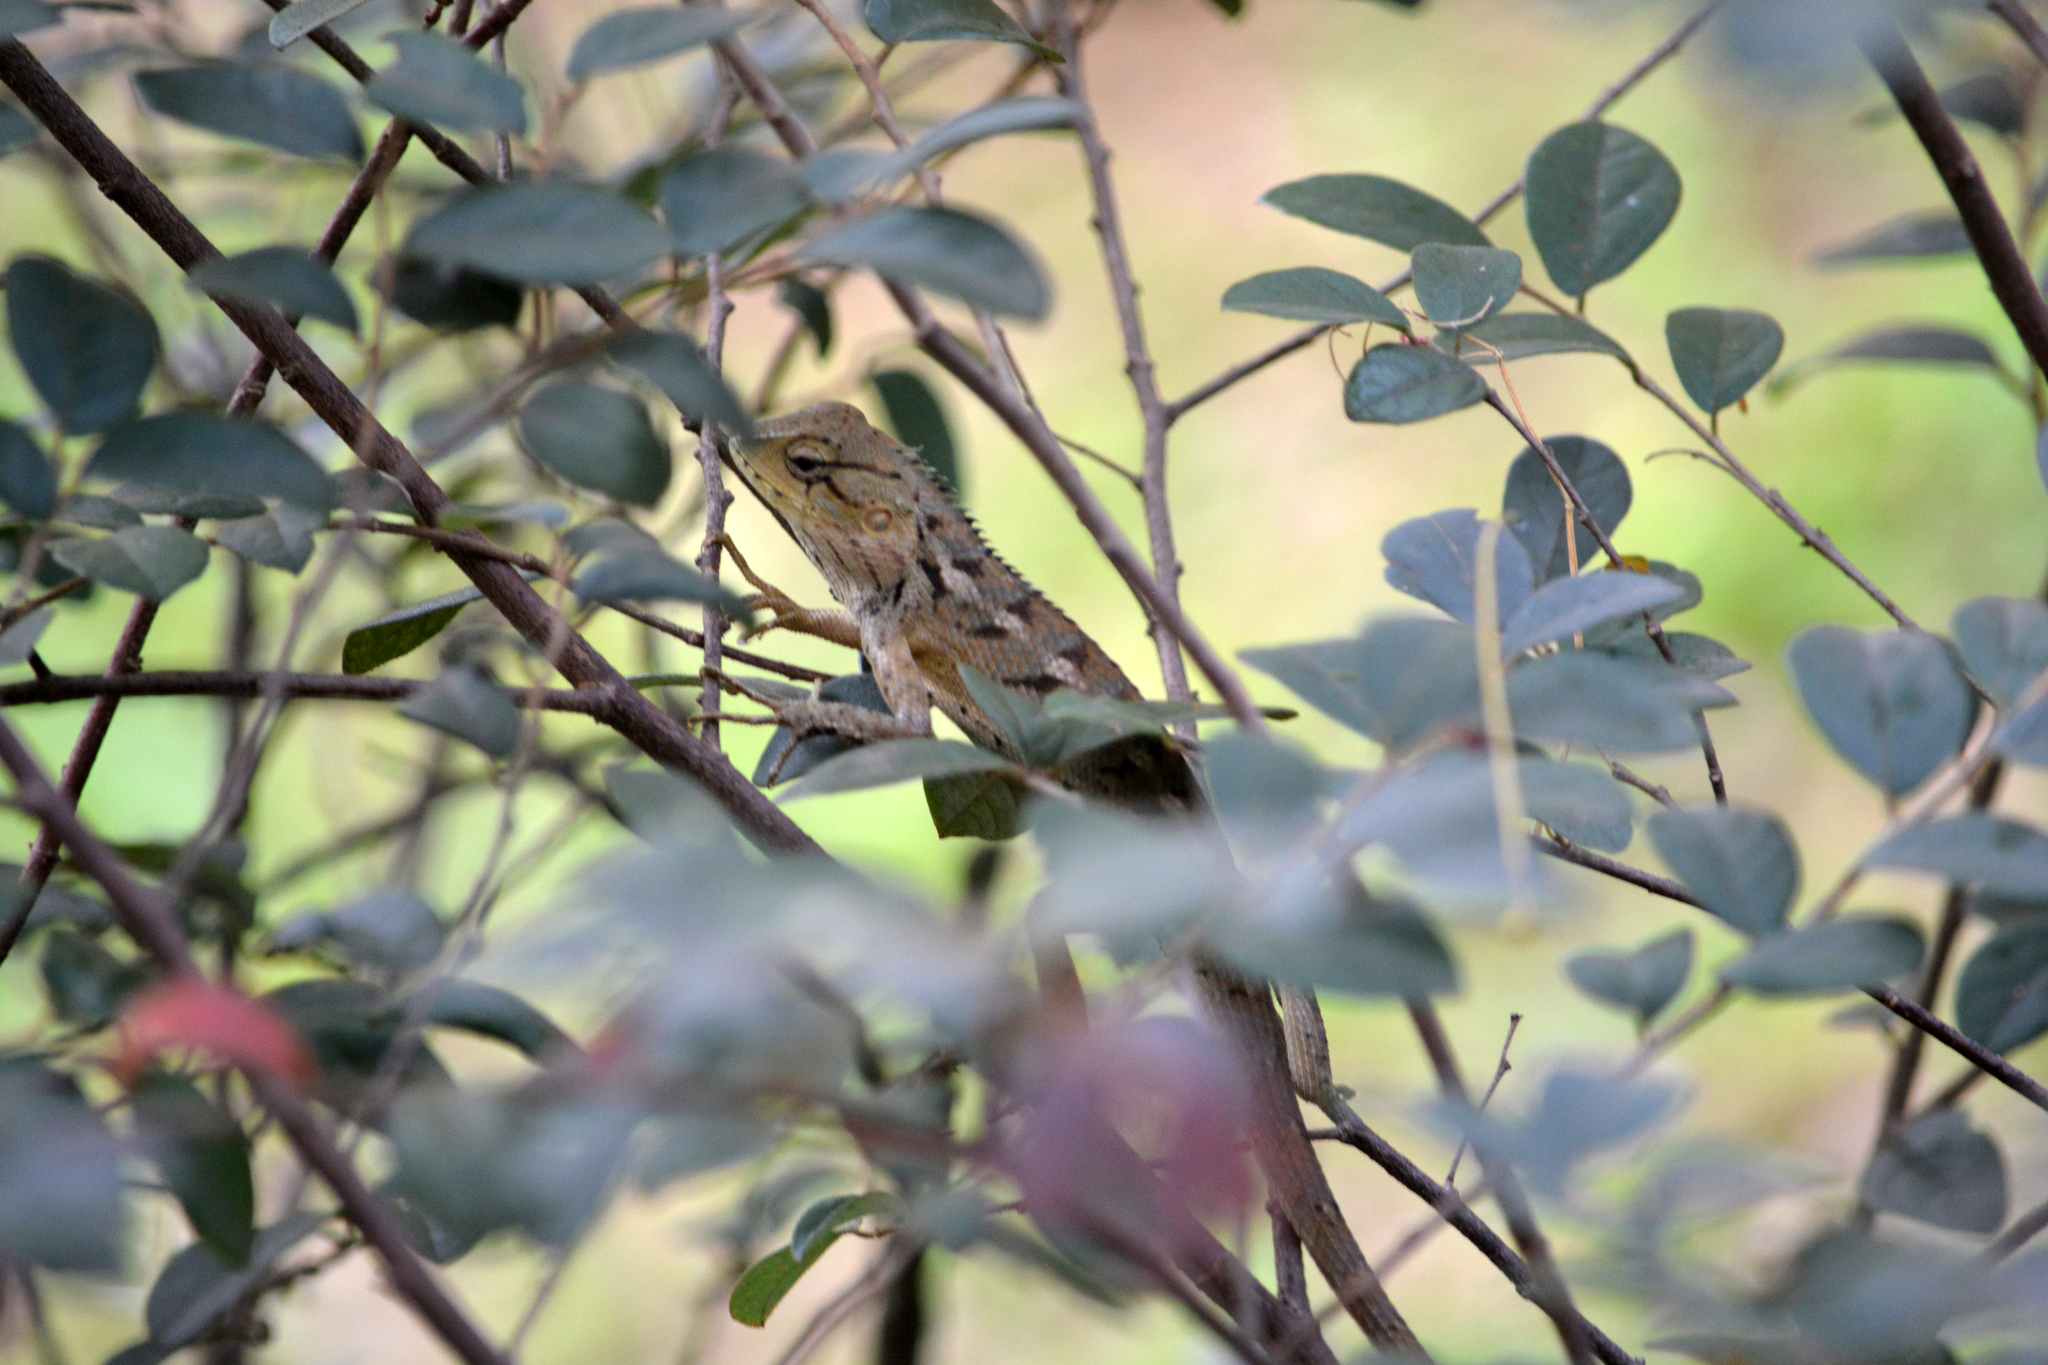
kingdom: Animalia
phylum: Chordata
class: Squamata
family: Agamidae
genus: Calotes
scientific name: Calotes versicolor
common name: Oriental garden lizard
